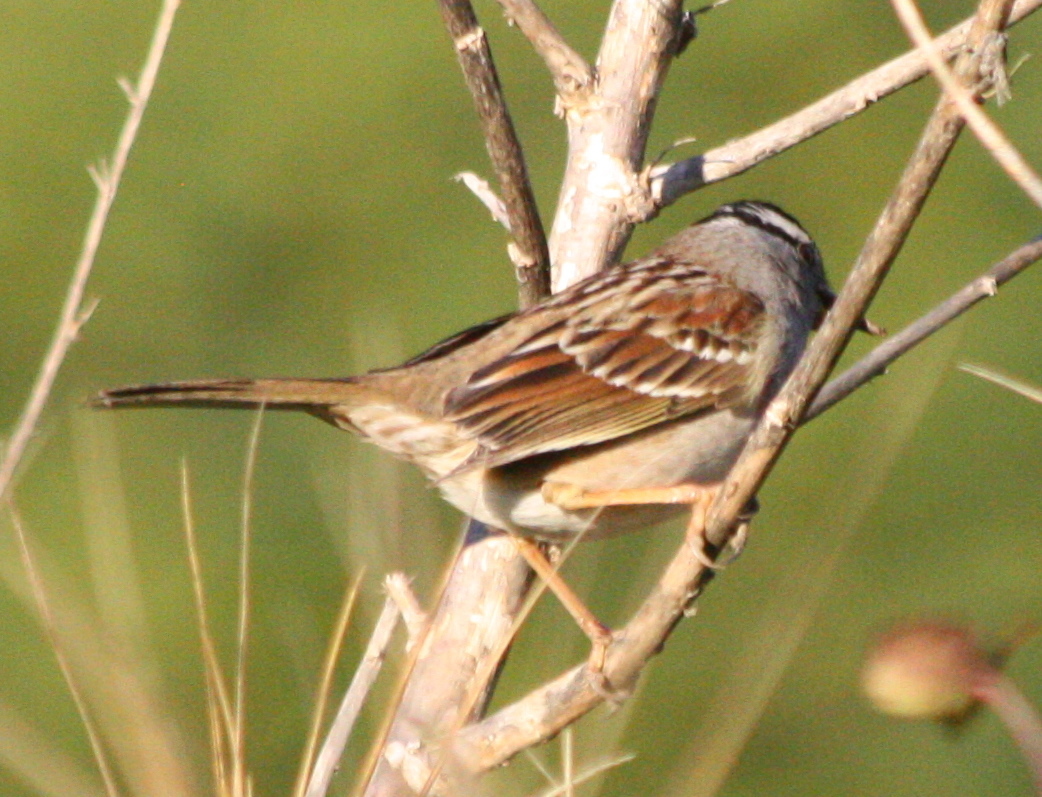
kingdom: Animalia
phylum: Chordata
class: Aves
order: Passeriformes
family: Passerellidae
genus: Zonotrichia
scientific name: Zonotrichia leucophrys
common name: White-crowned sparrow
